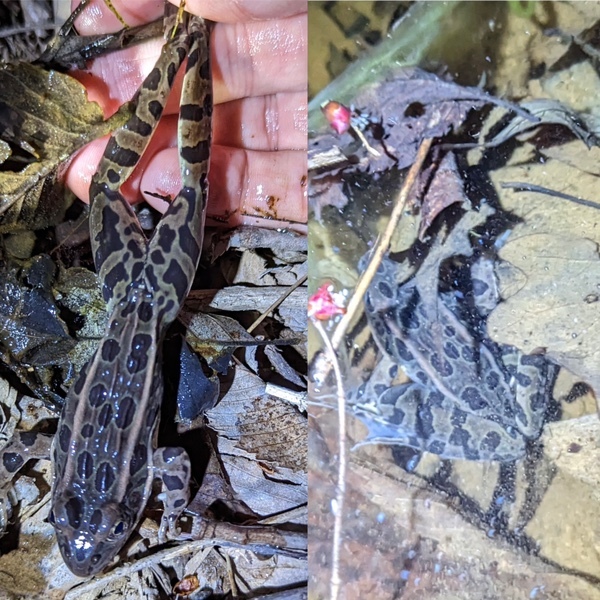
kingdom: Animalia
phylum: Chordata
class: Amphibia
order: Anura
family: Ranidae
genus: Lithobates
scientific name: Lithobates pipiens
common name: Northern leopard frog
